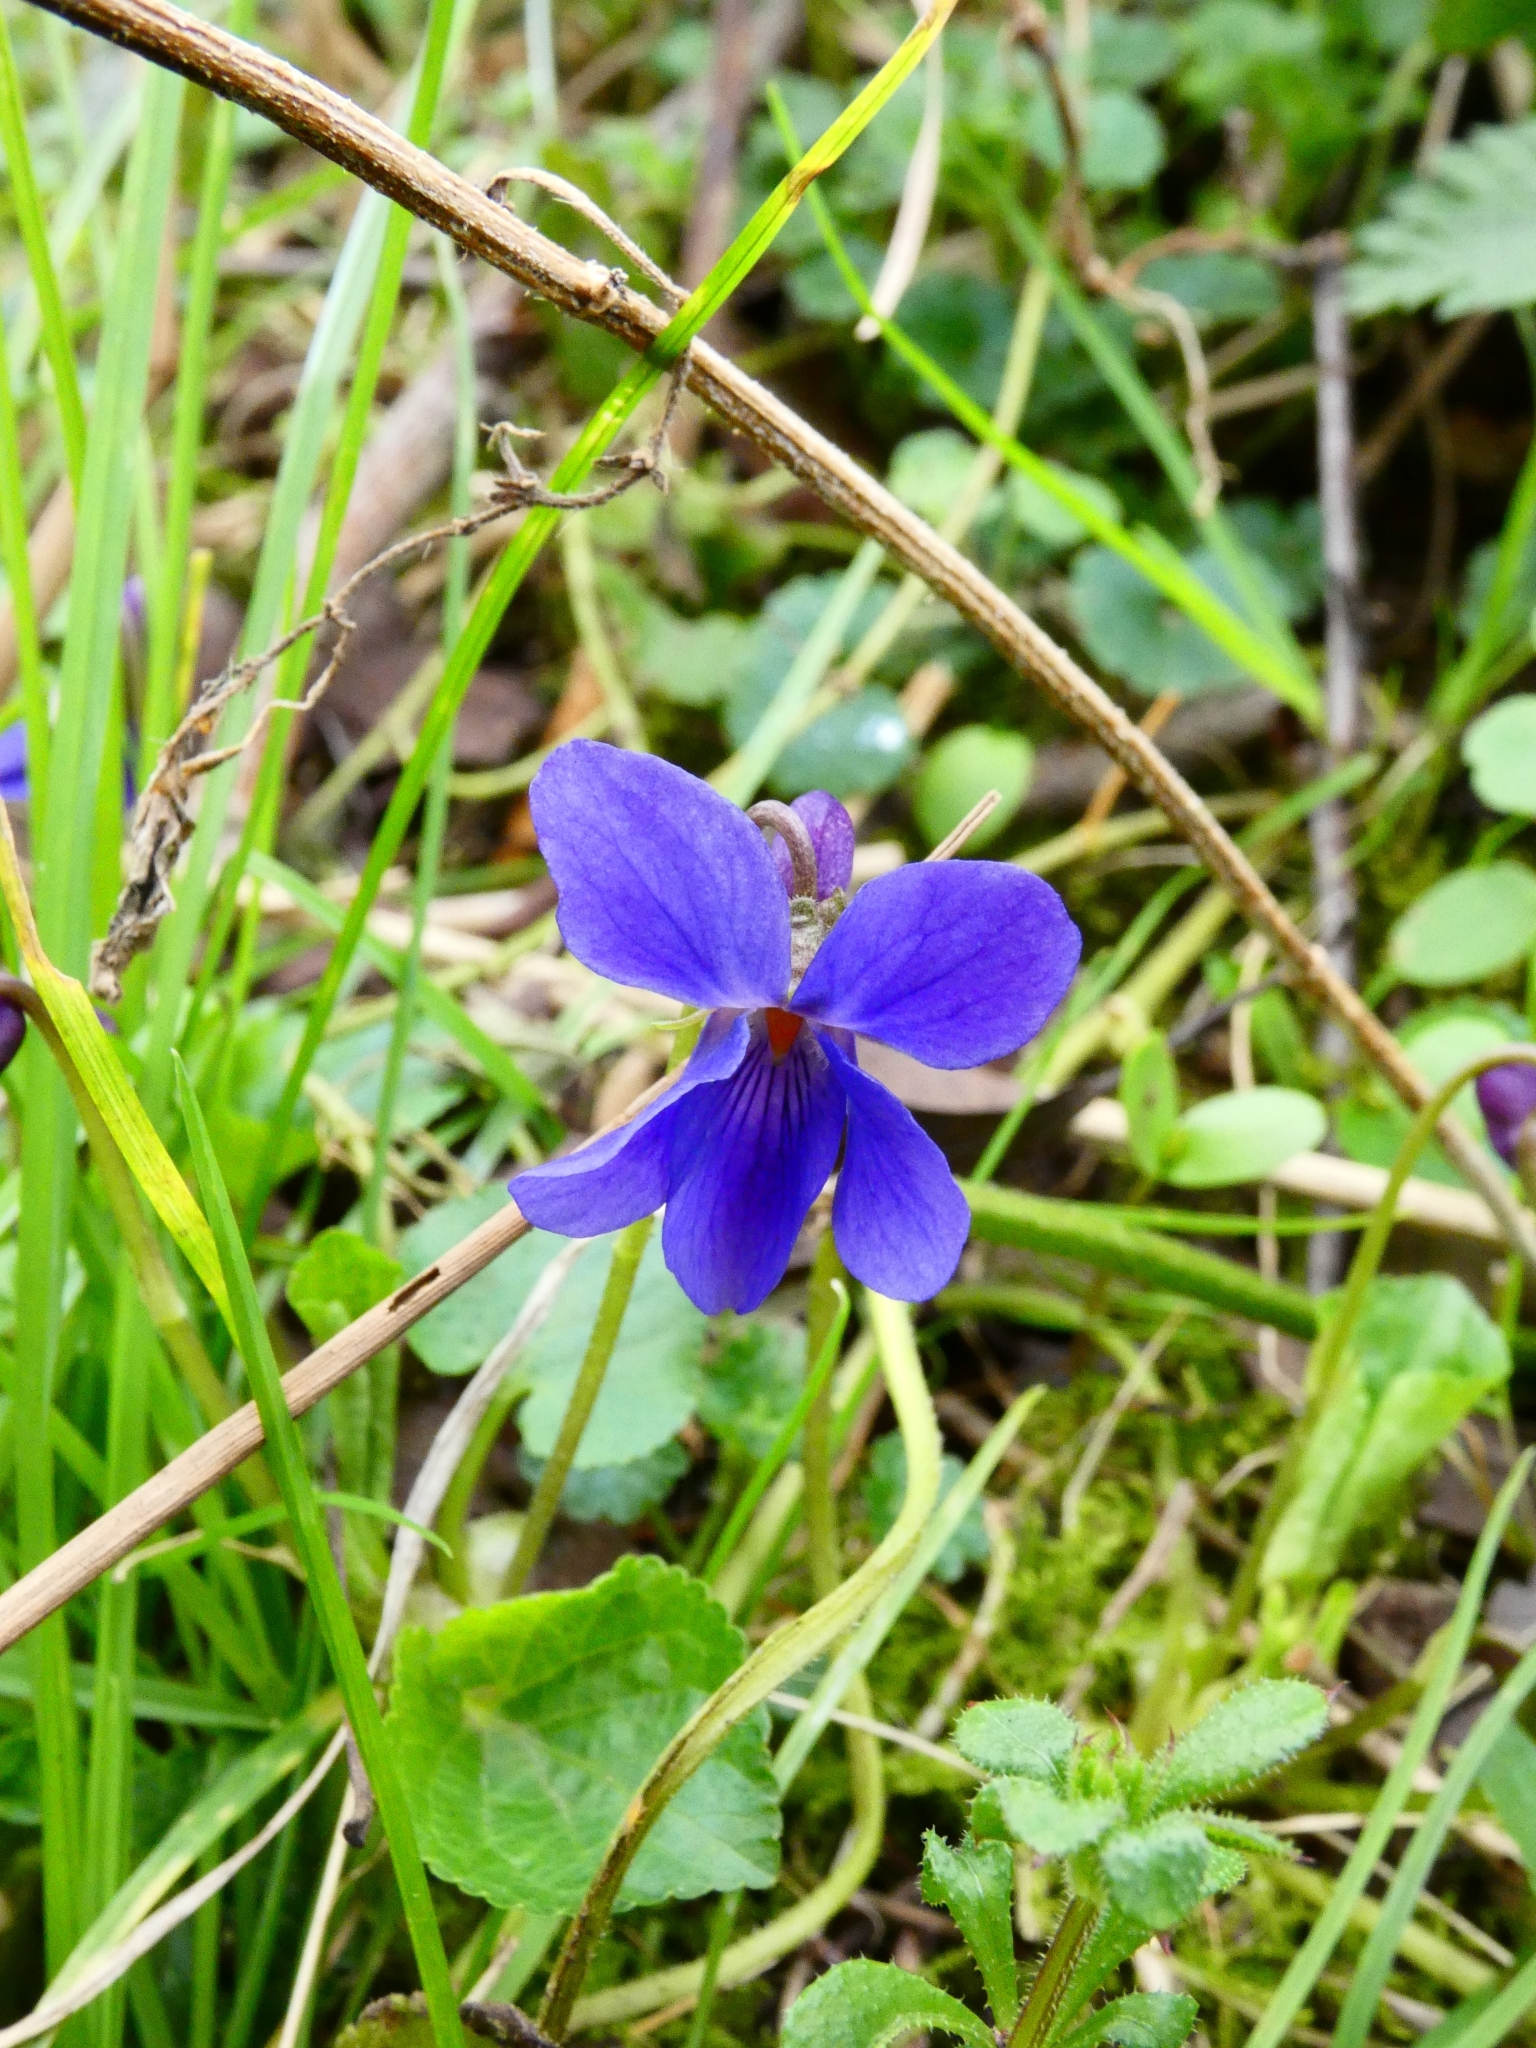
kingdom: Plantae
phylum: Tracheophyta
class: Magnoliopsida
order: Malpighiales
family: Violaceae
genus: Viola
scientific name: Viola odorata
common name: Sweet violet
